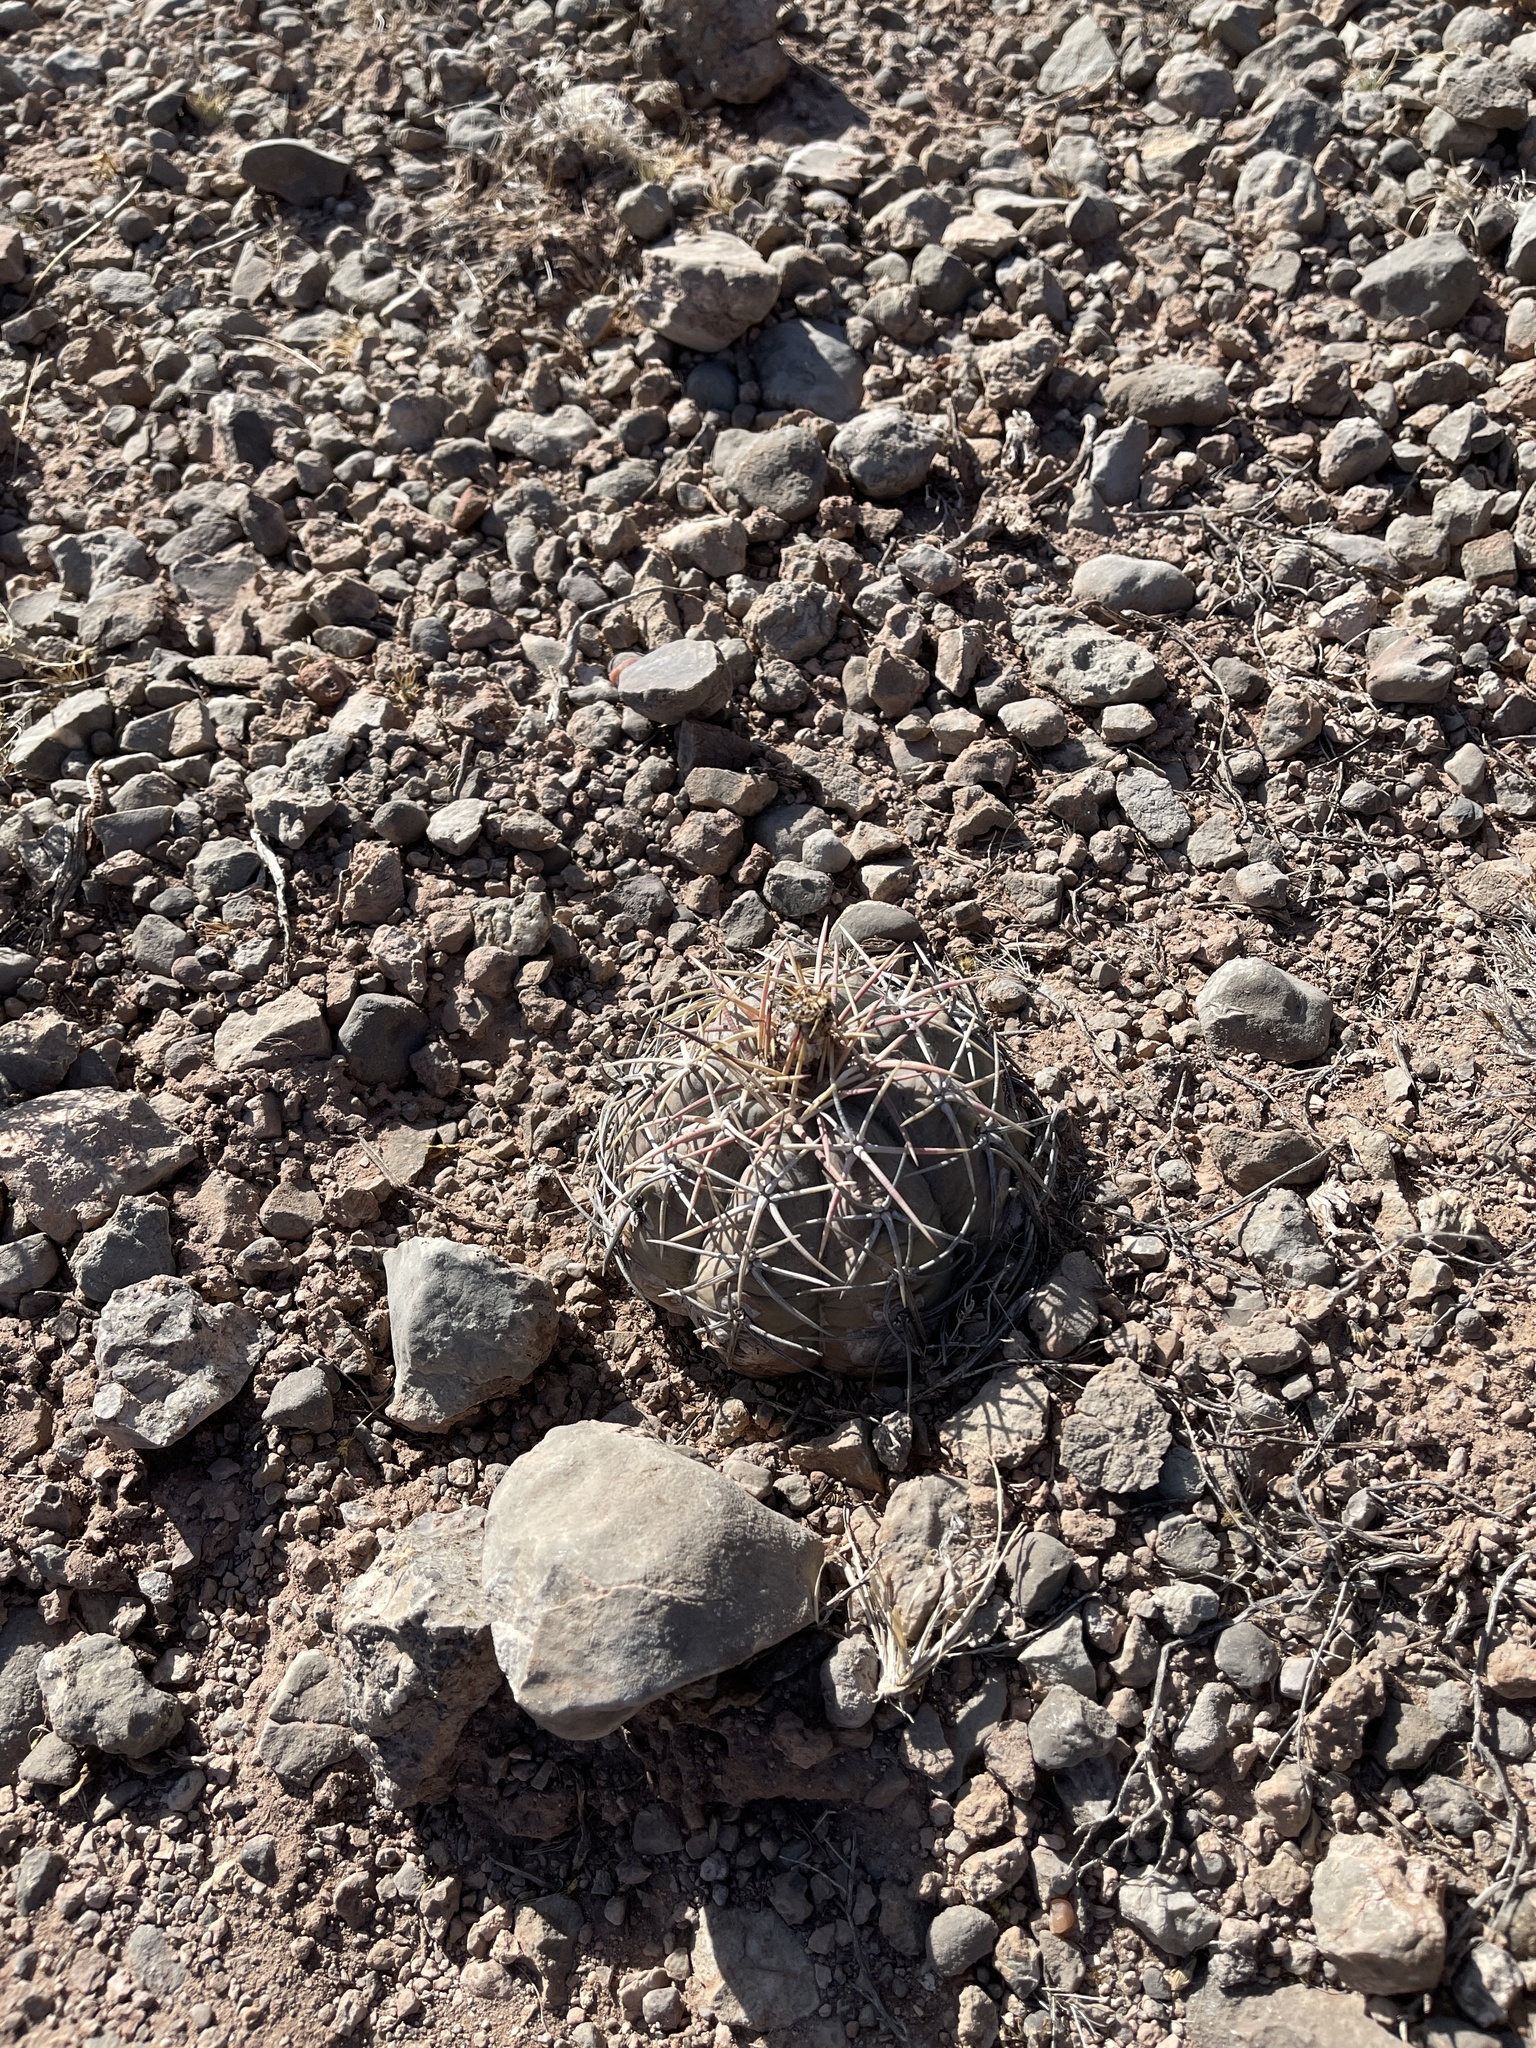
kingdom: Plantae
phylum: Tracheophyta
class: Magnoliopsida
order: Caryophyllales
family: Cactaceae
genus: Echinocactus
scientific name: Echinocactus horizonthalonius
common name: Devilshead
